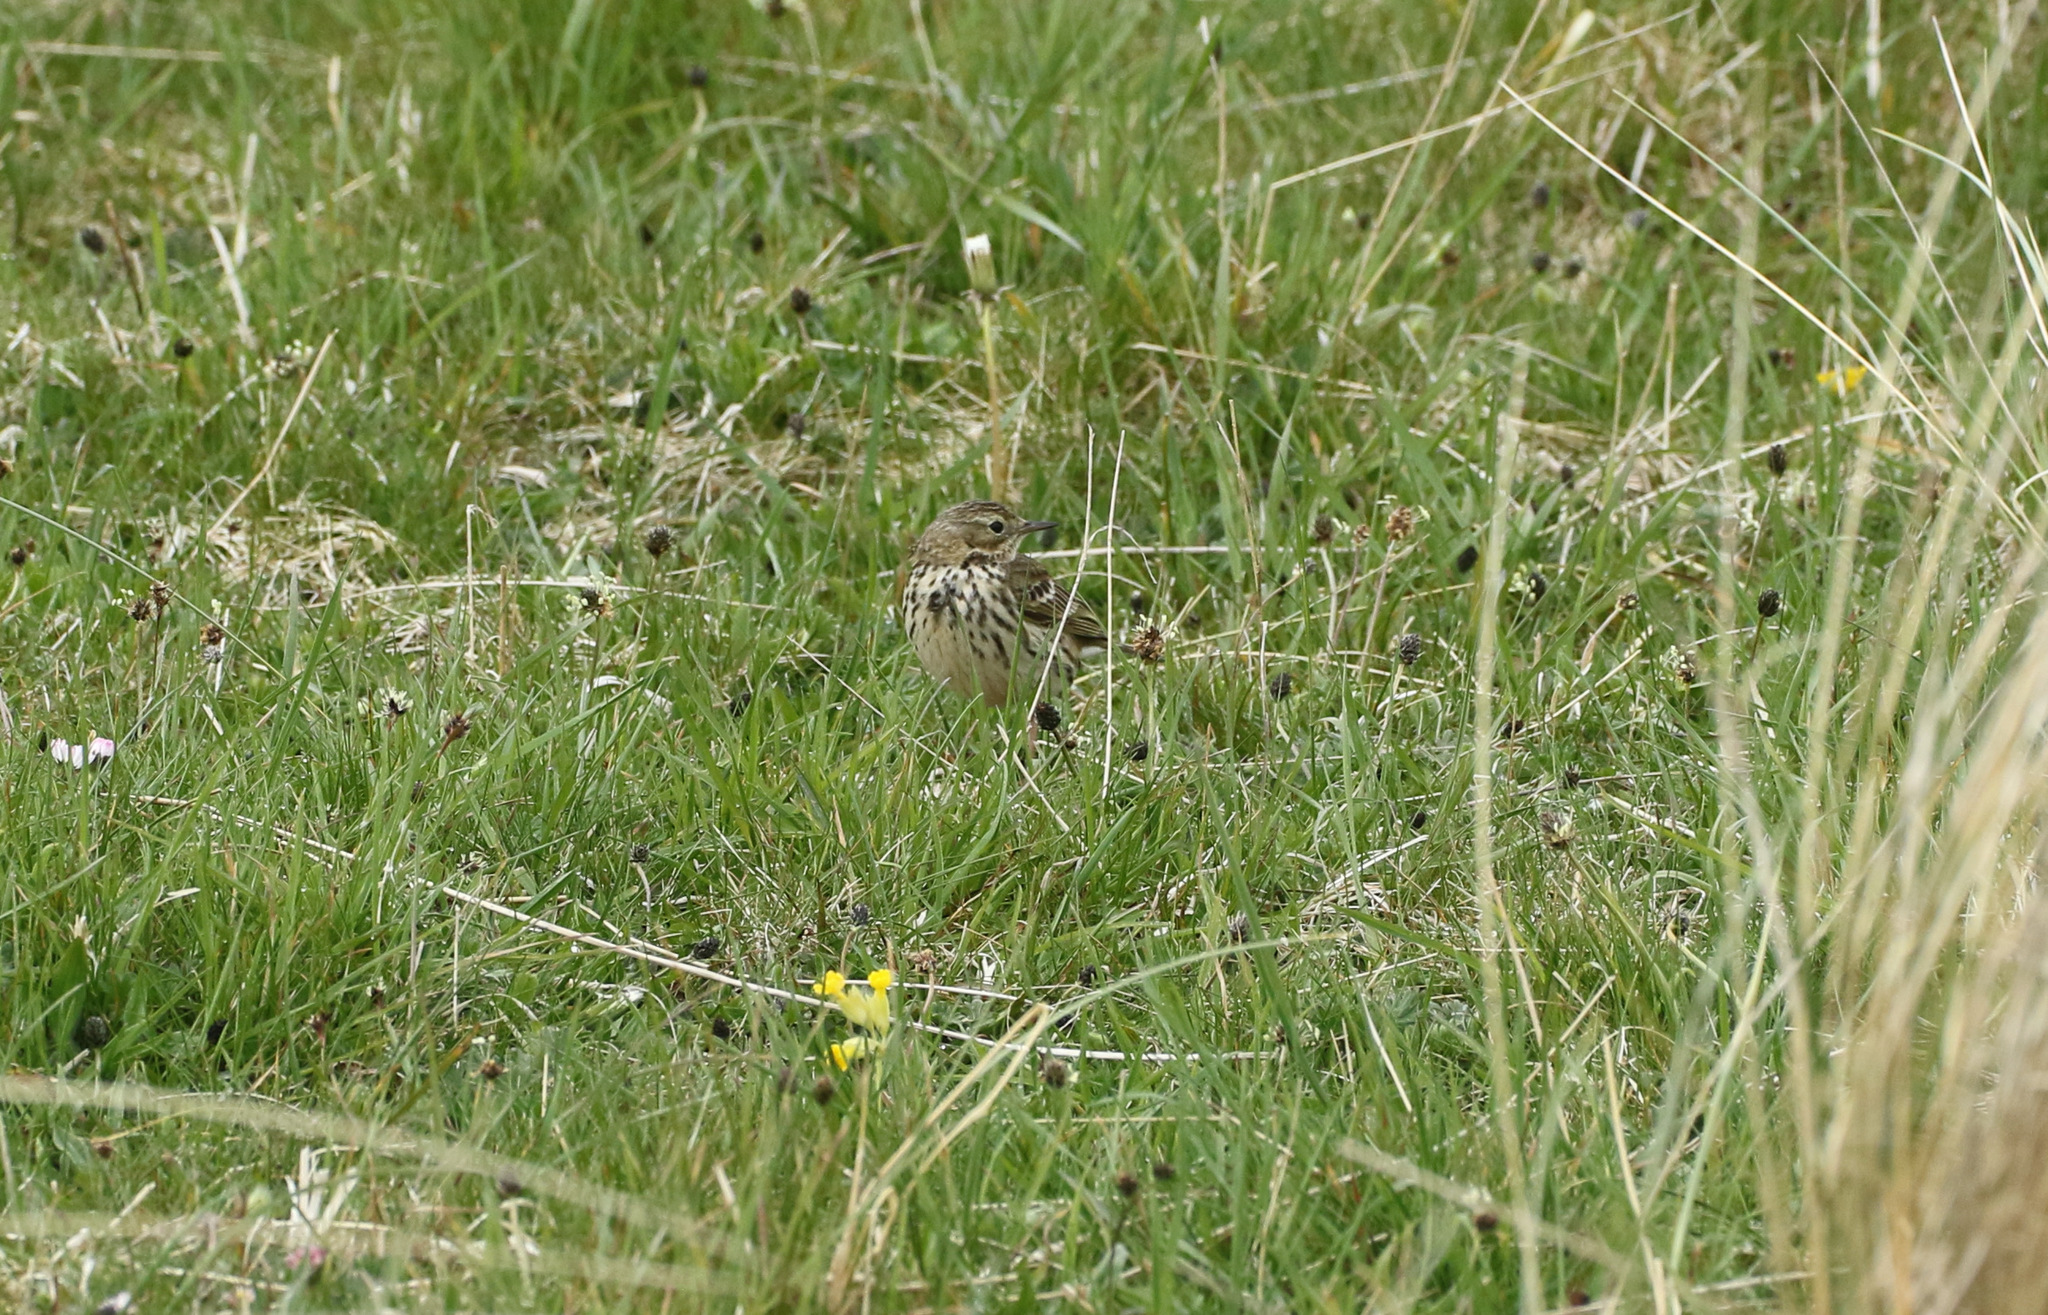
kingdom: Animalia
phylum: Chordata
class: Aves
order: Passeriformes
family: Motacillidae
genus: Anthus
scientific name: Anthus pratensis
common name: Meadow pipit
